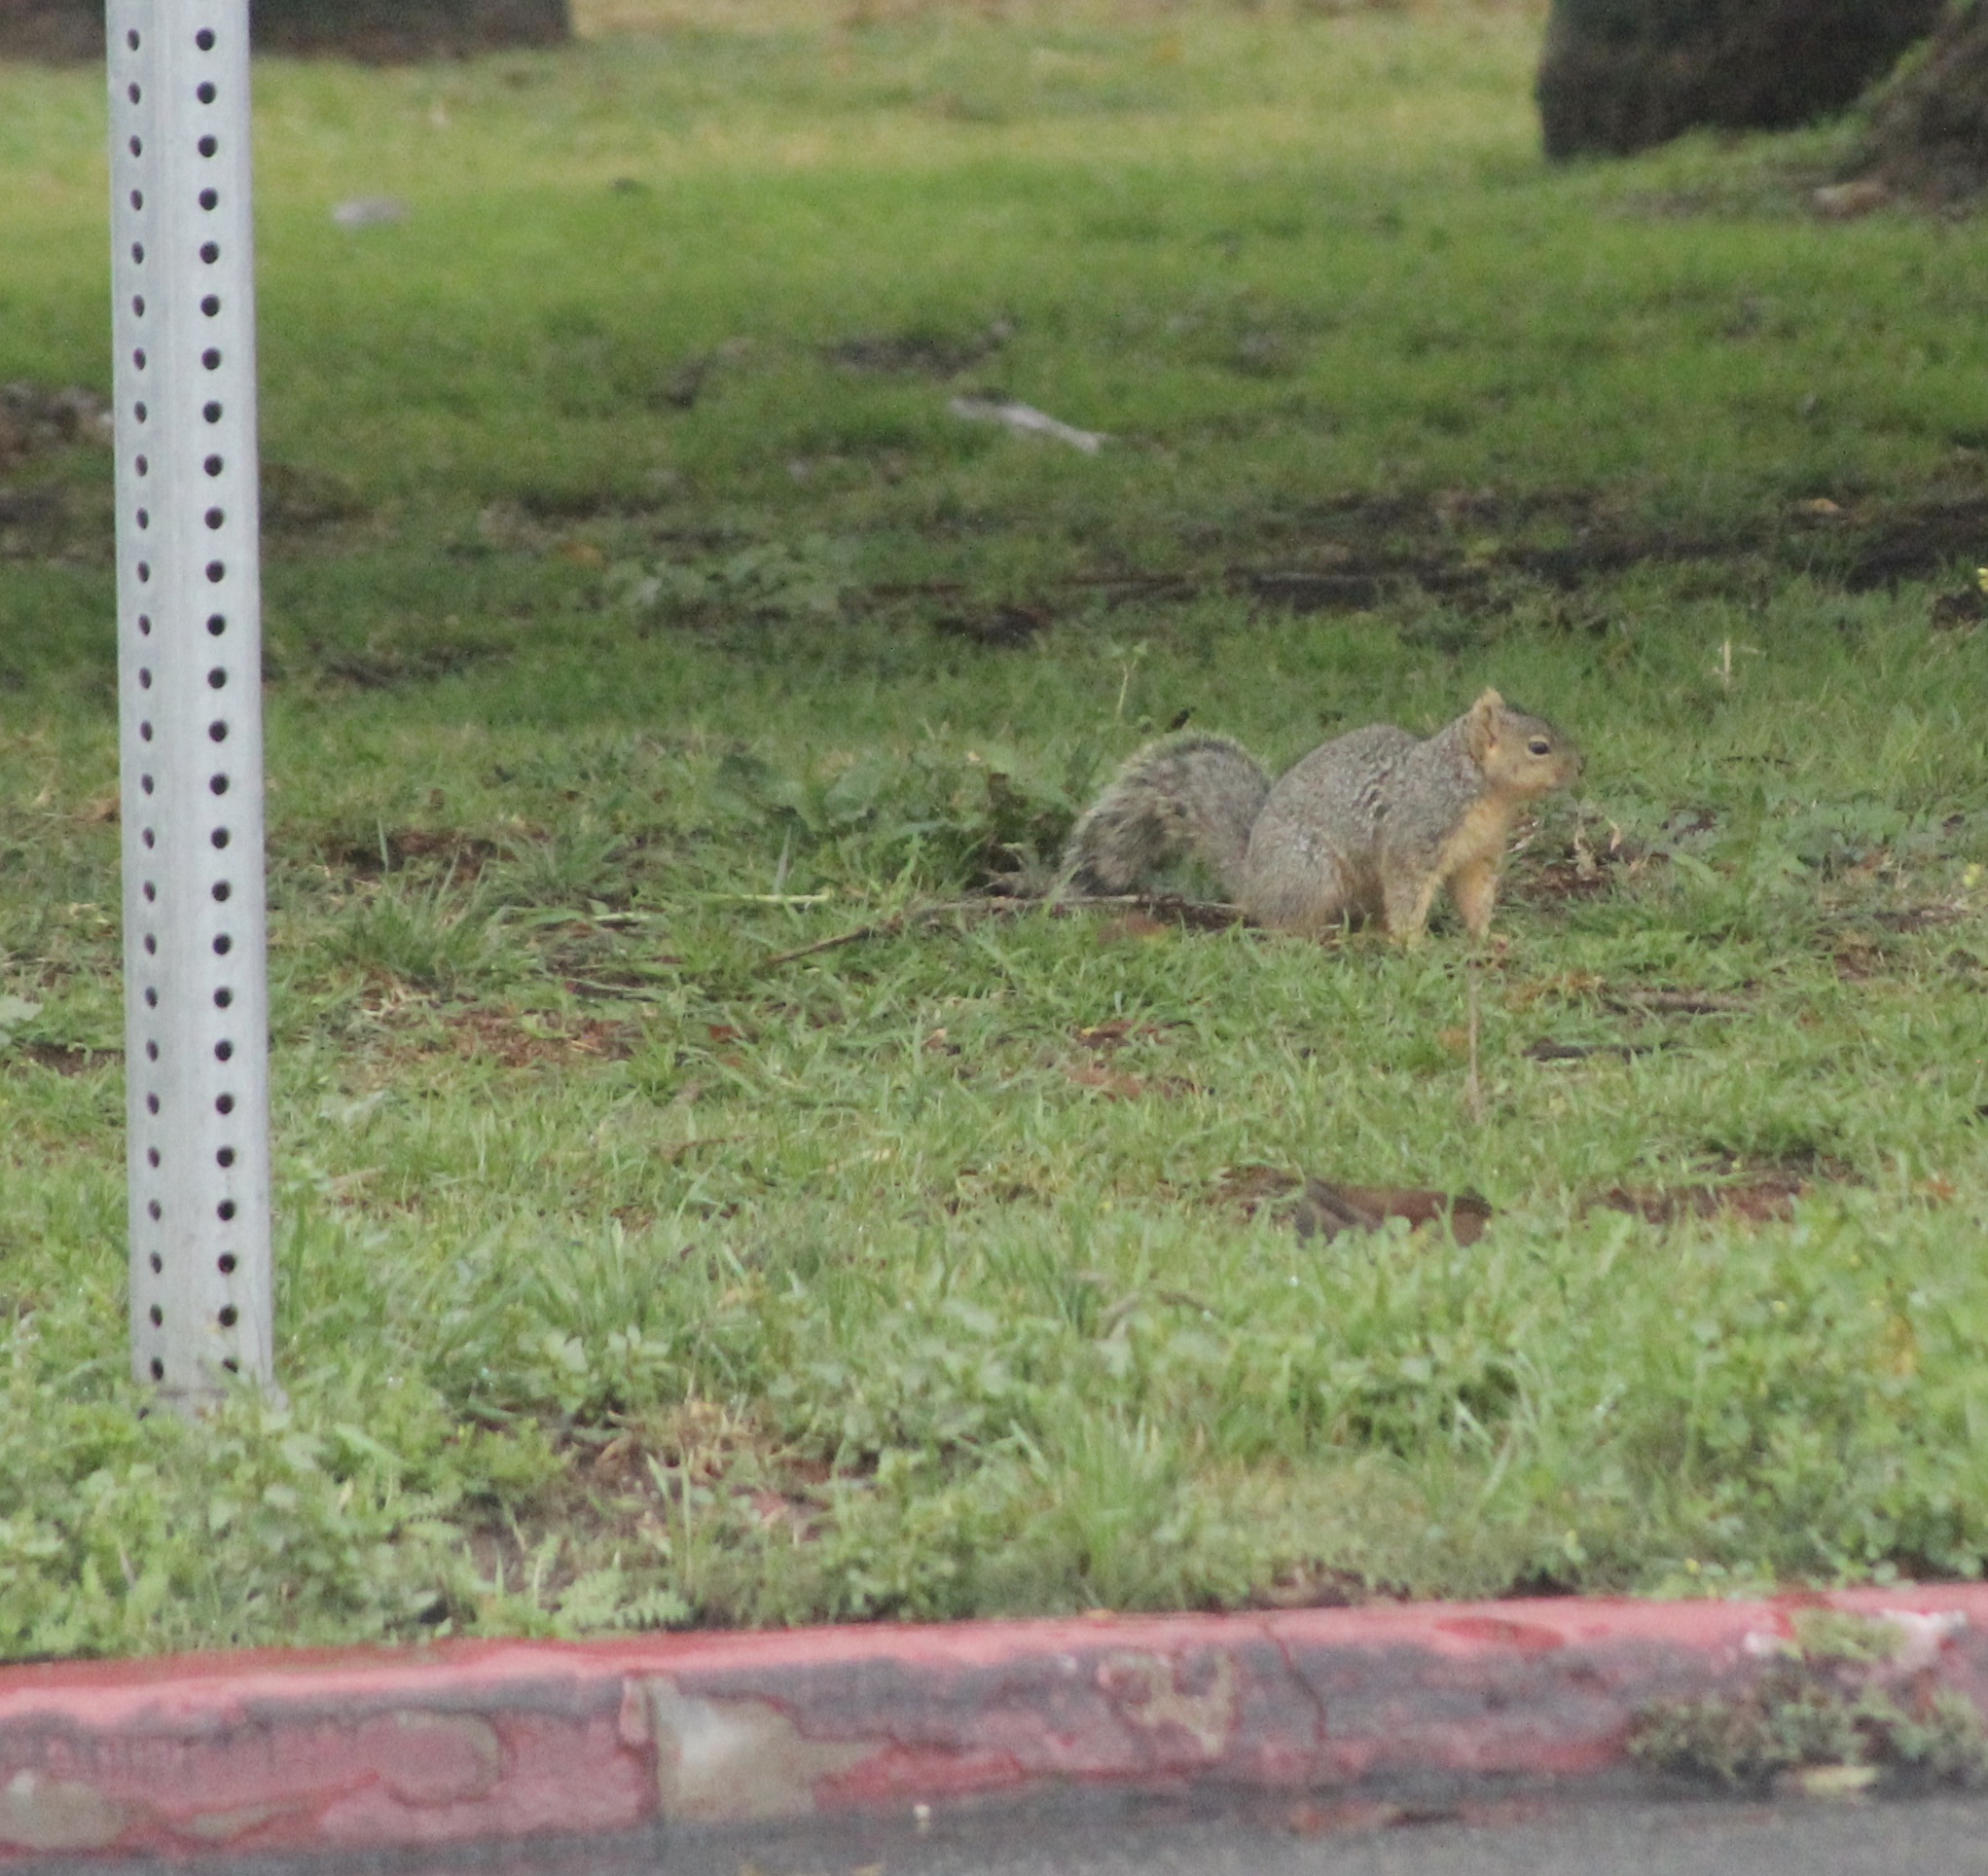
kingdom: Animalia
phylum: Chordata
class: Mammalia
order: Rodentia
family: Sciuridae
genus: Sciurus
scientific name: Sciurus niger
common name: Fox squirrel
